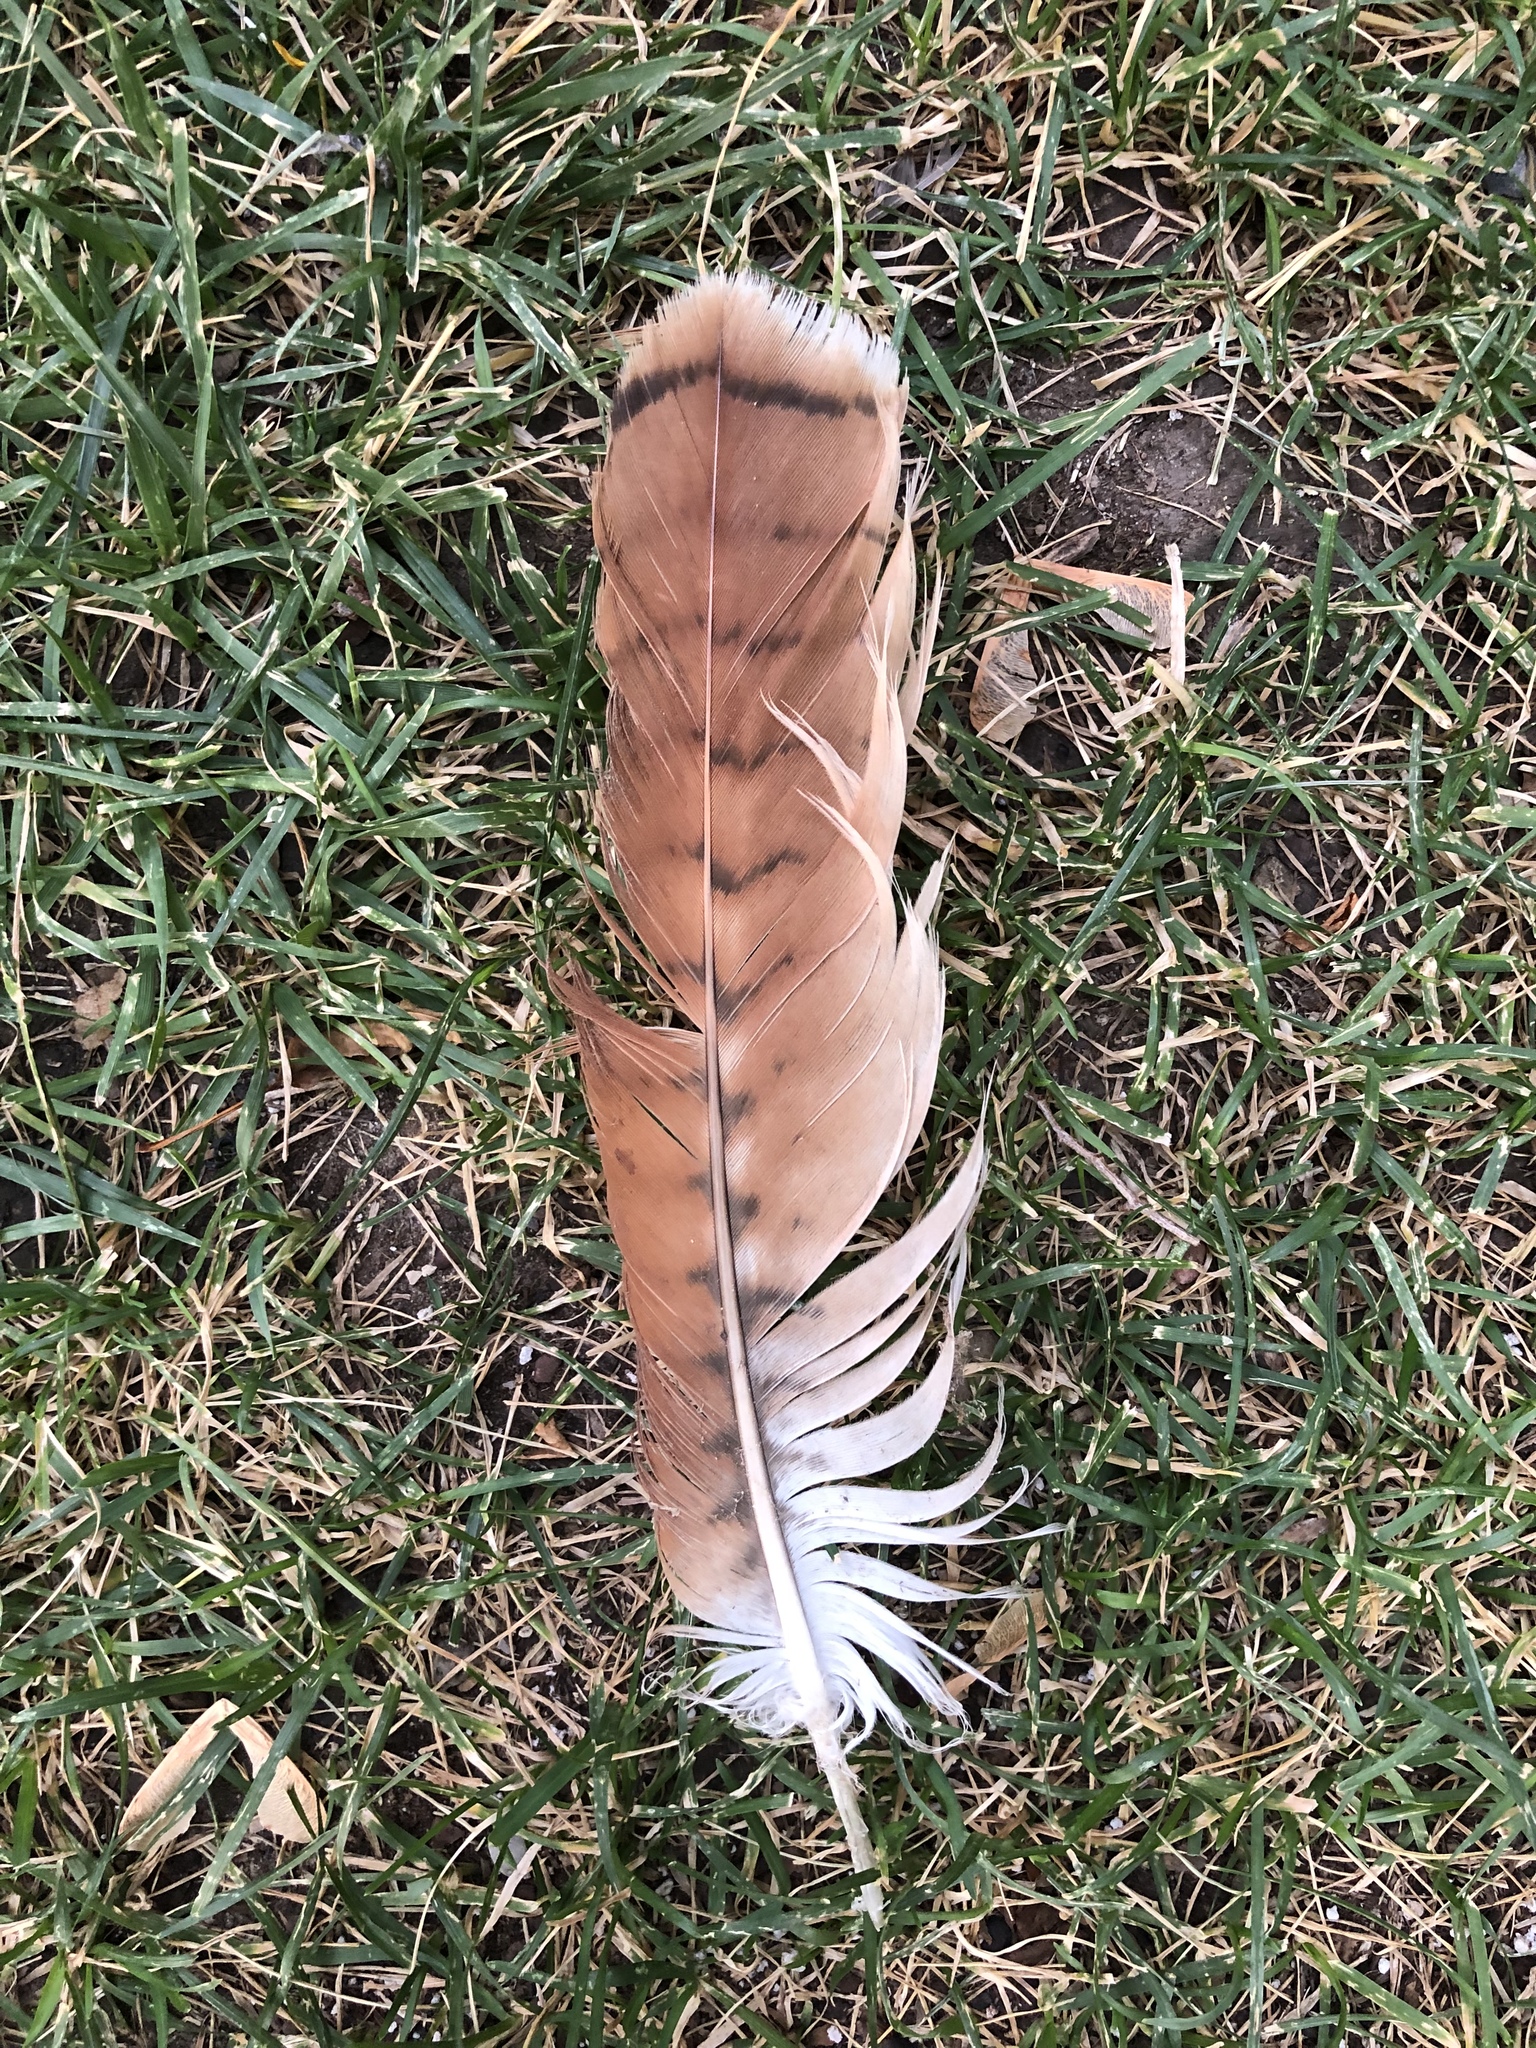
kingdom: Animalia
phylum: Chordata
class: Aves
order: Accipitriformes
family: Accipitridae
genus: Buteo
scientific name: Buteo jamaicensis
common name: Red-tailed hawk
